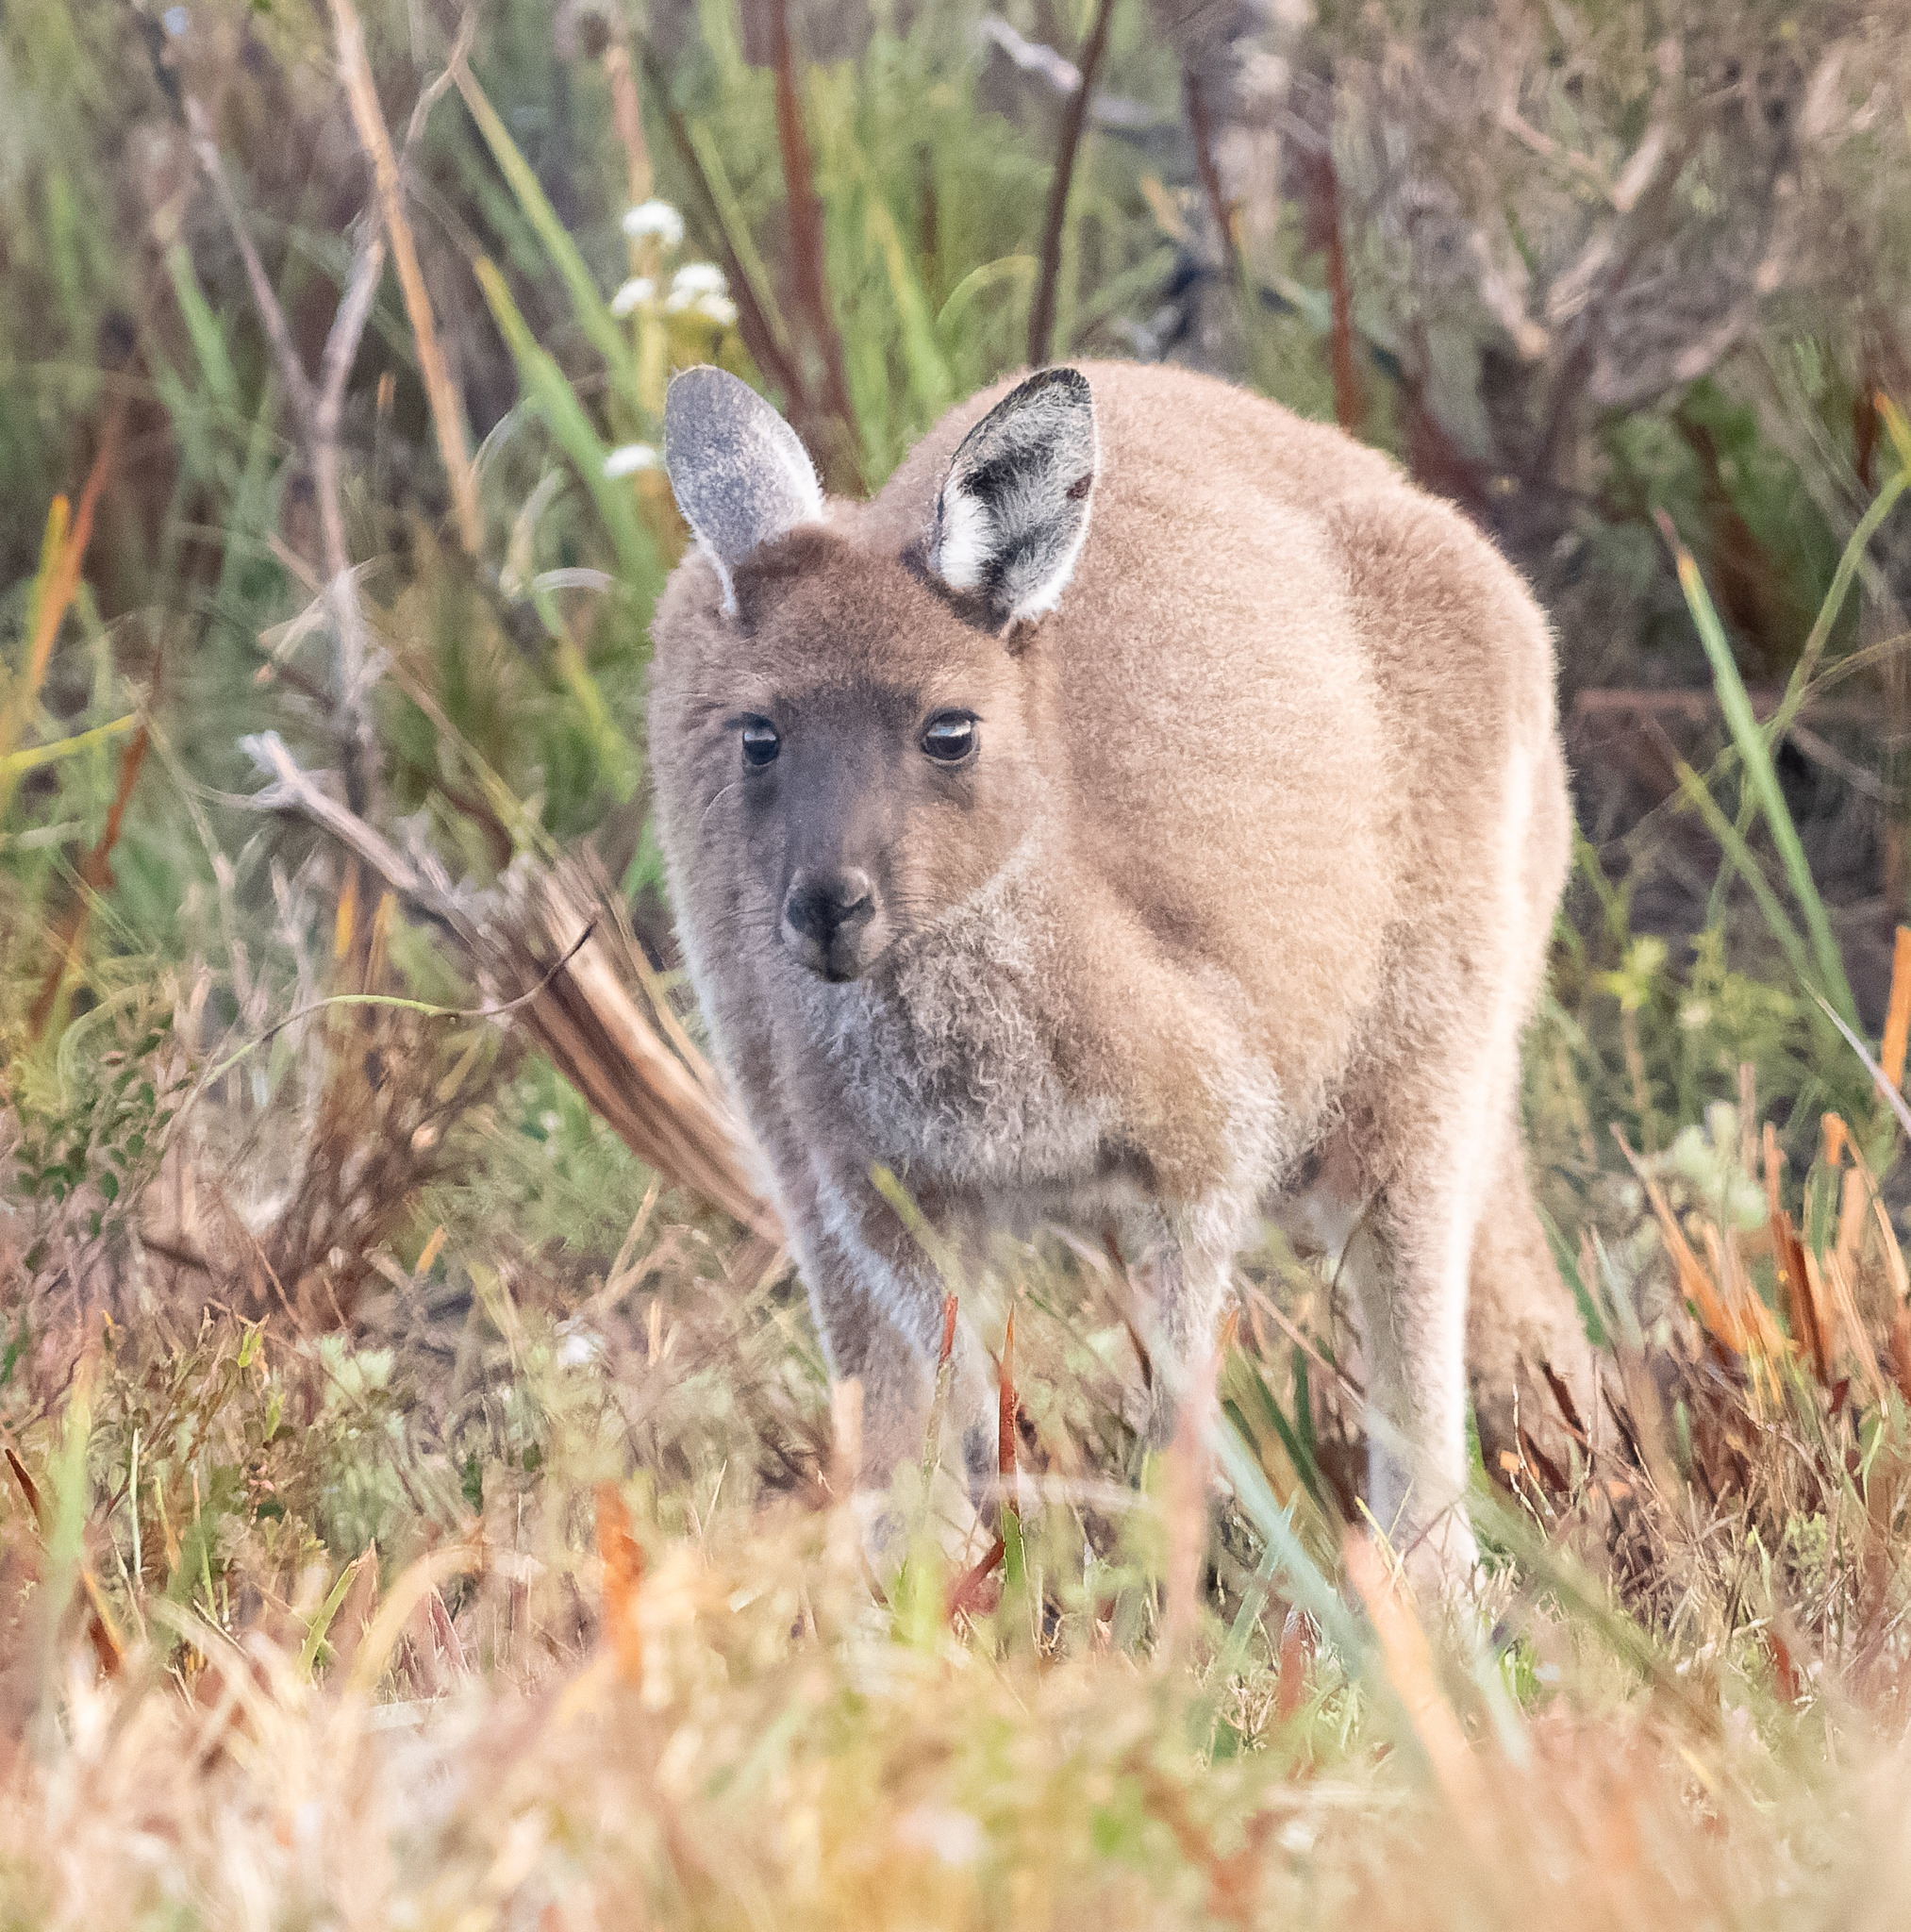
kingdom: Animalia
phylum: Chordata
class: Mammalia
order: Diprotodontia
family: Macropodidae
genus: Macropus
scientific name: Macropus fuliginosus
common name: Western grey kangaroo
